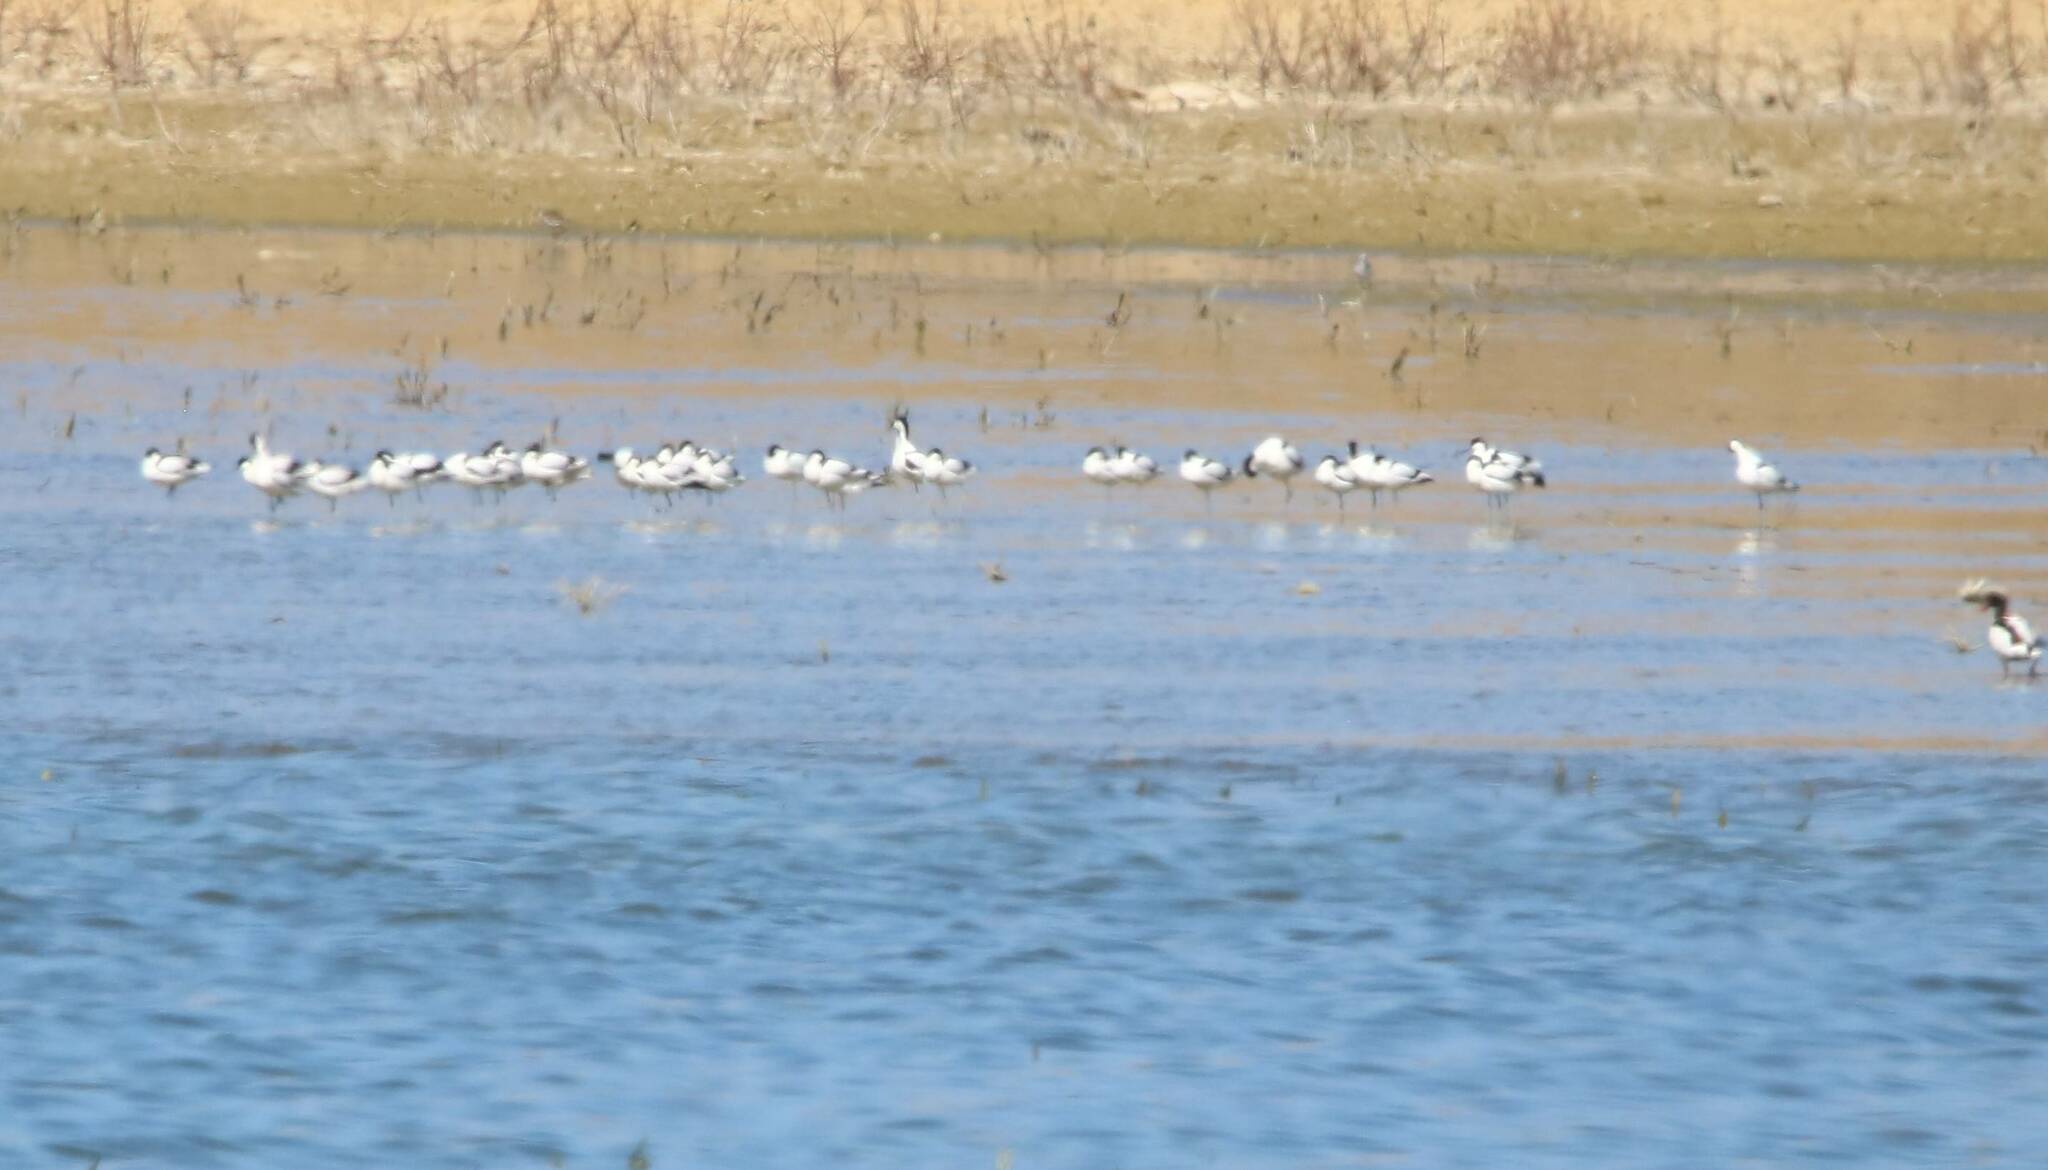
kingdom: Animalia
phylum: Chordata
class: Aves
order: Charadriiformes
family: Recurvirostridae
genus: Recurvirostra
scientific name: Recurvirostra avosetta
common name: Pied avocet
